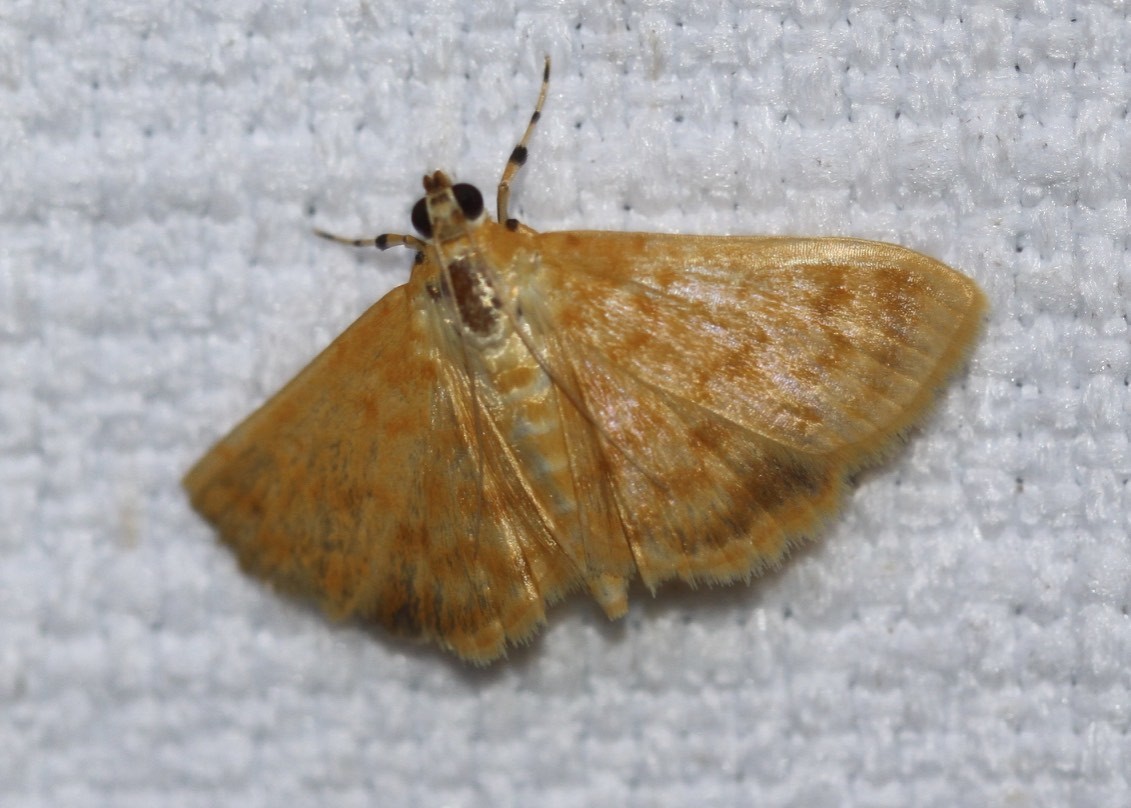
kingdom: Animalia
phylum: Arthropoda
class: Insecta
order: Lepidoptera
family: Crambidae
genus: Notarcha
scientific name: Notarcha chrysoplasta
